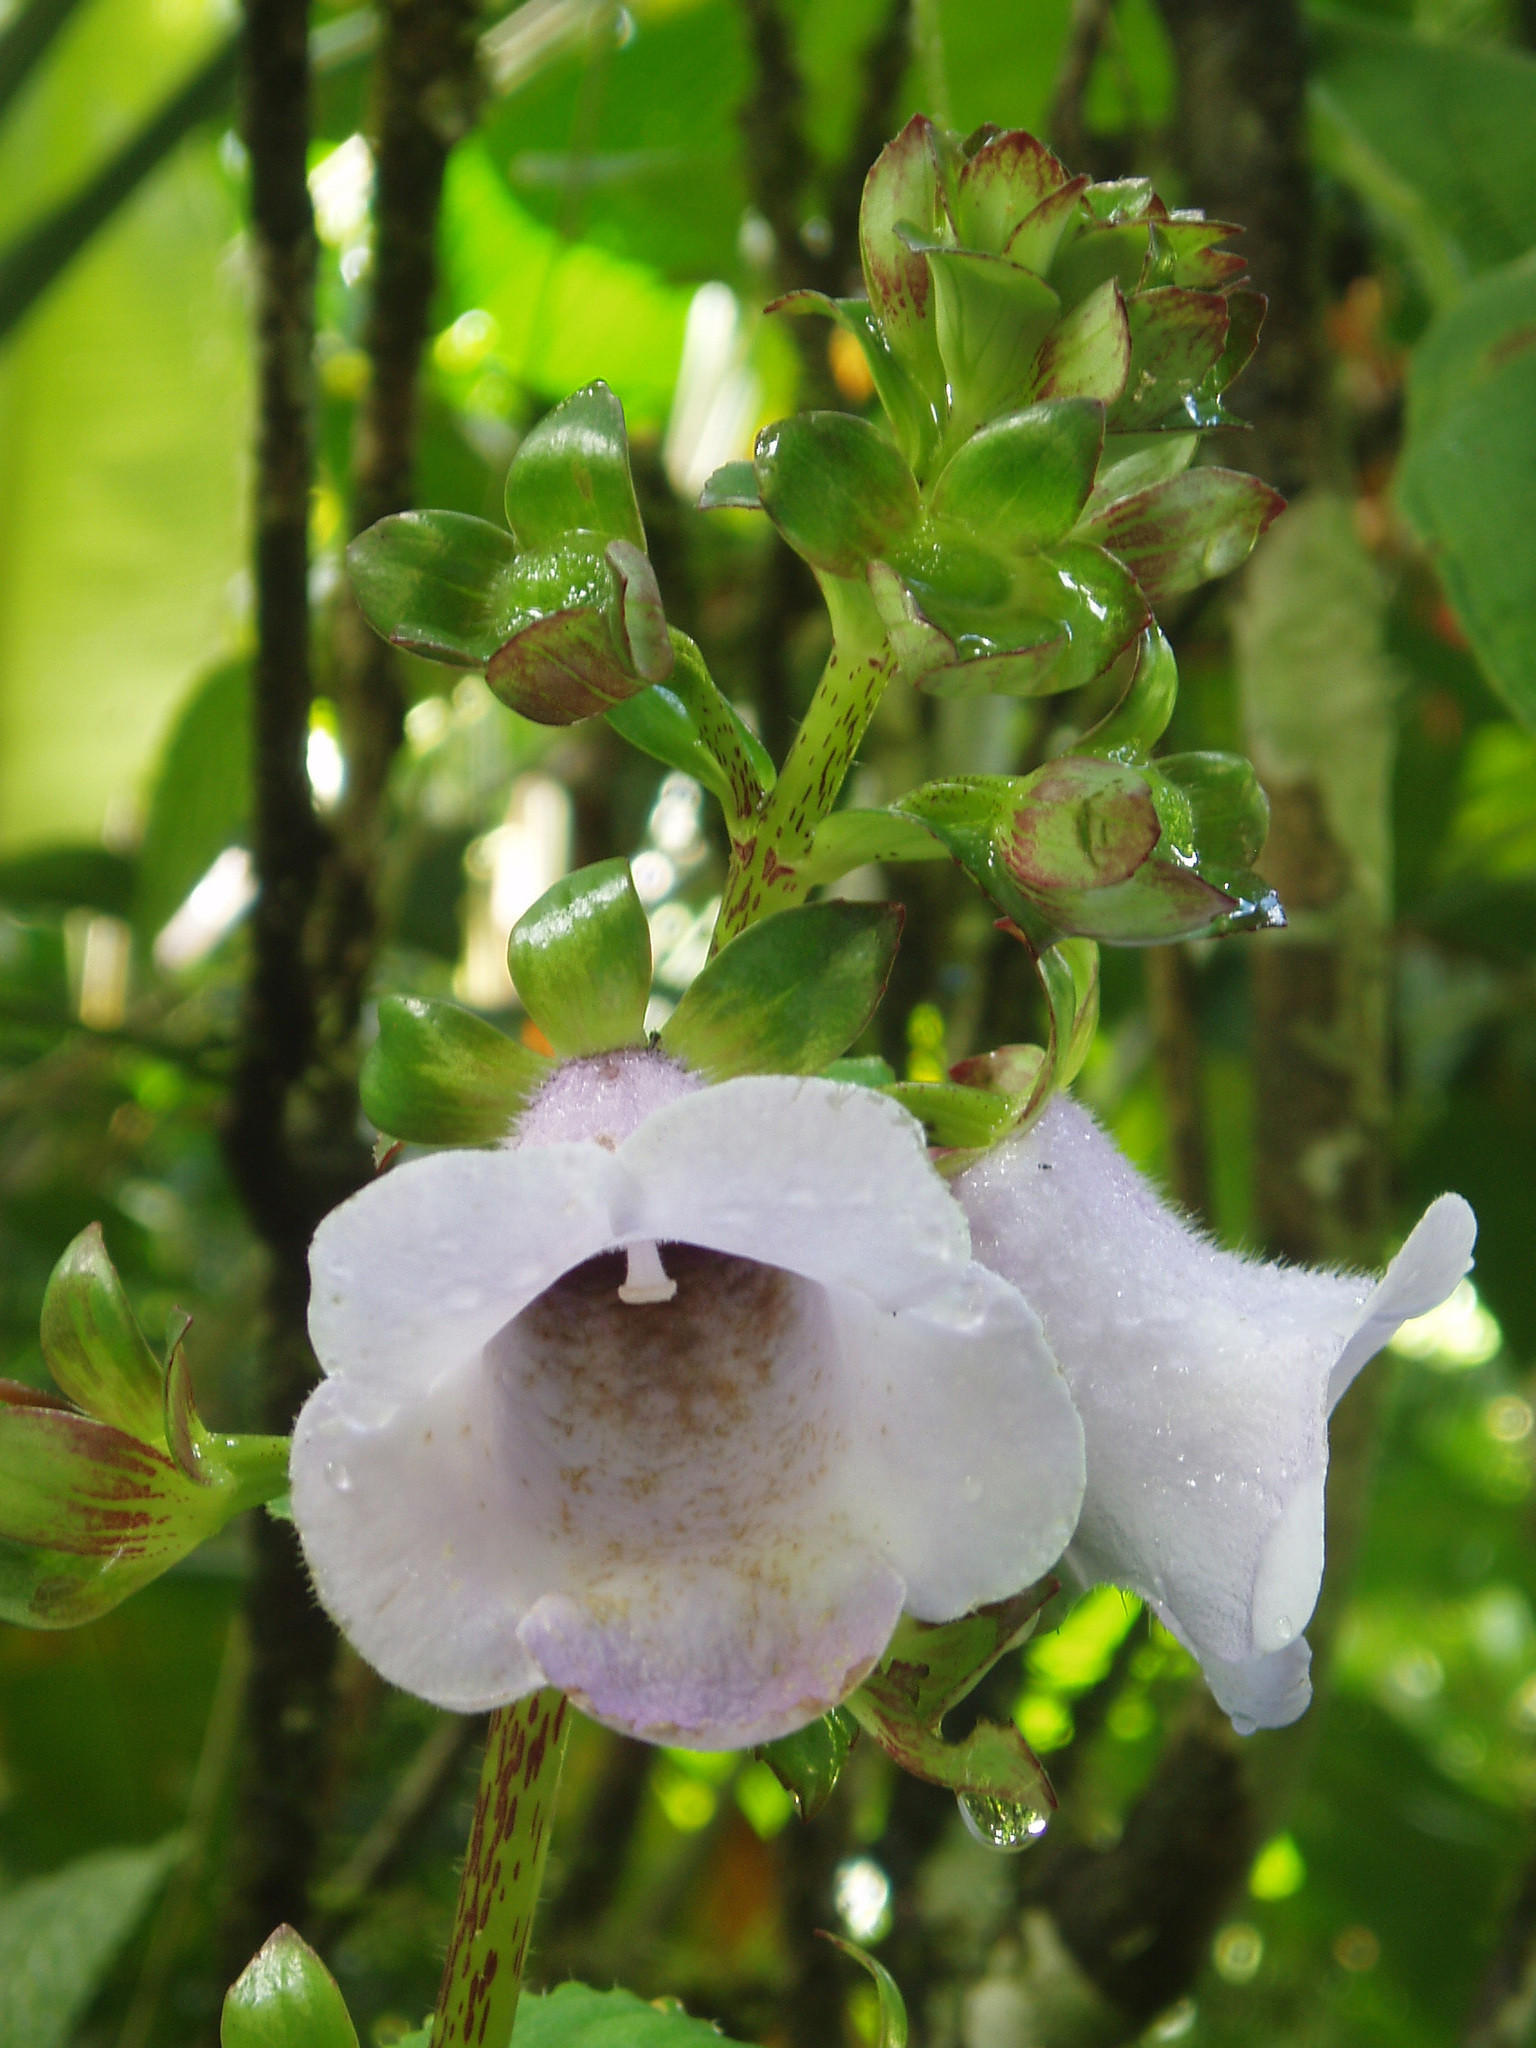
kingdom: Plantae
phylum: Tracheophyta
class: Magnoliopsida
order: Lamiales
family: Gesneriaceae
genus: Gloxinia
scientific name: Gloxinia perennis
